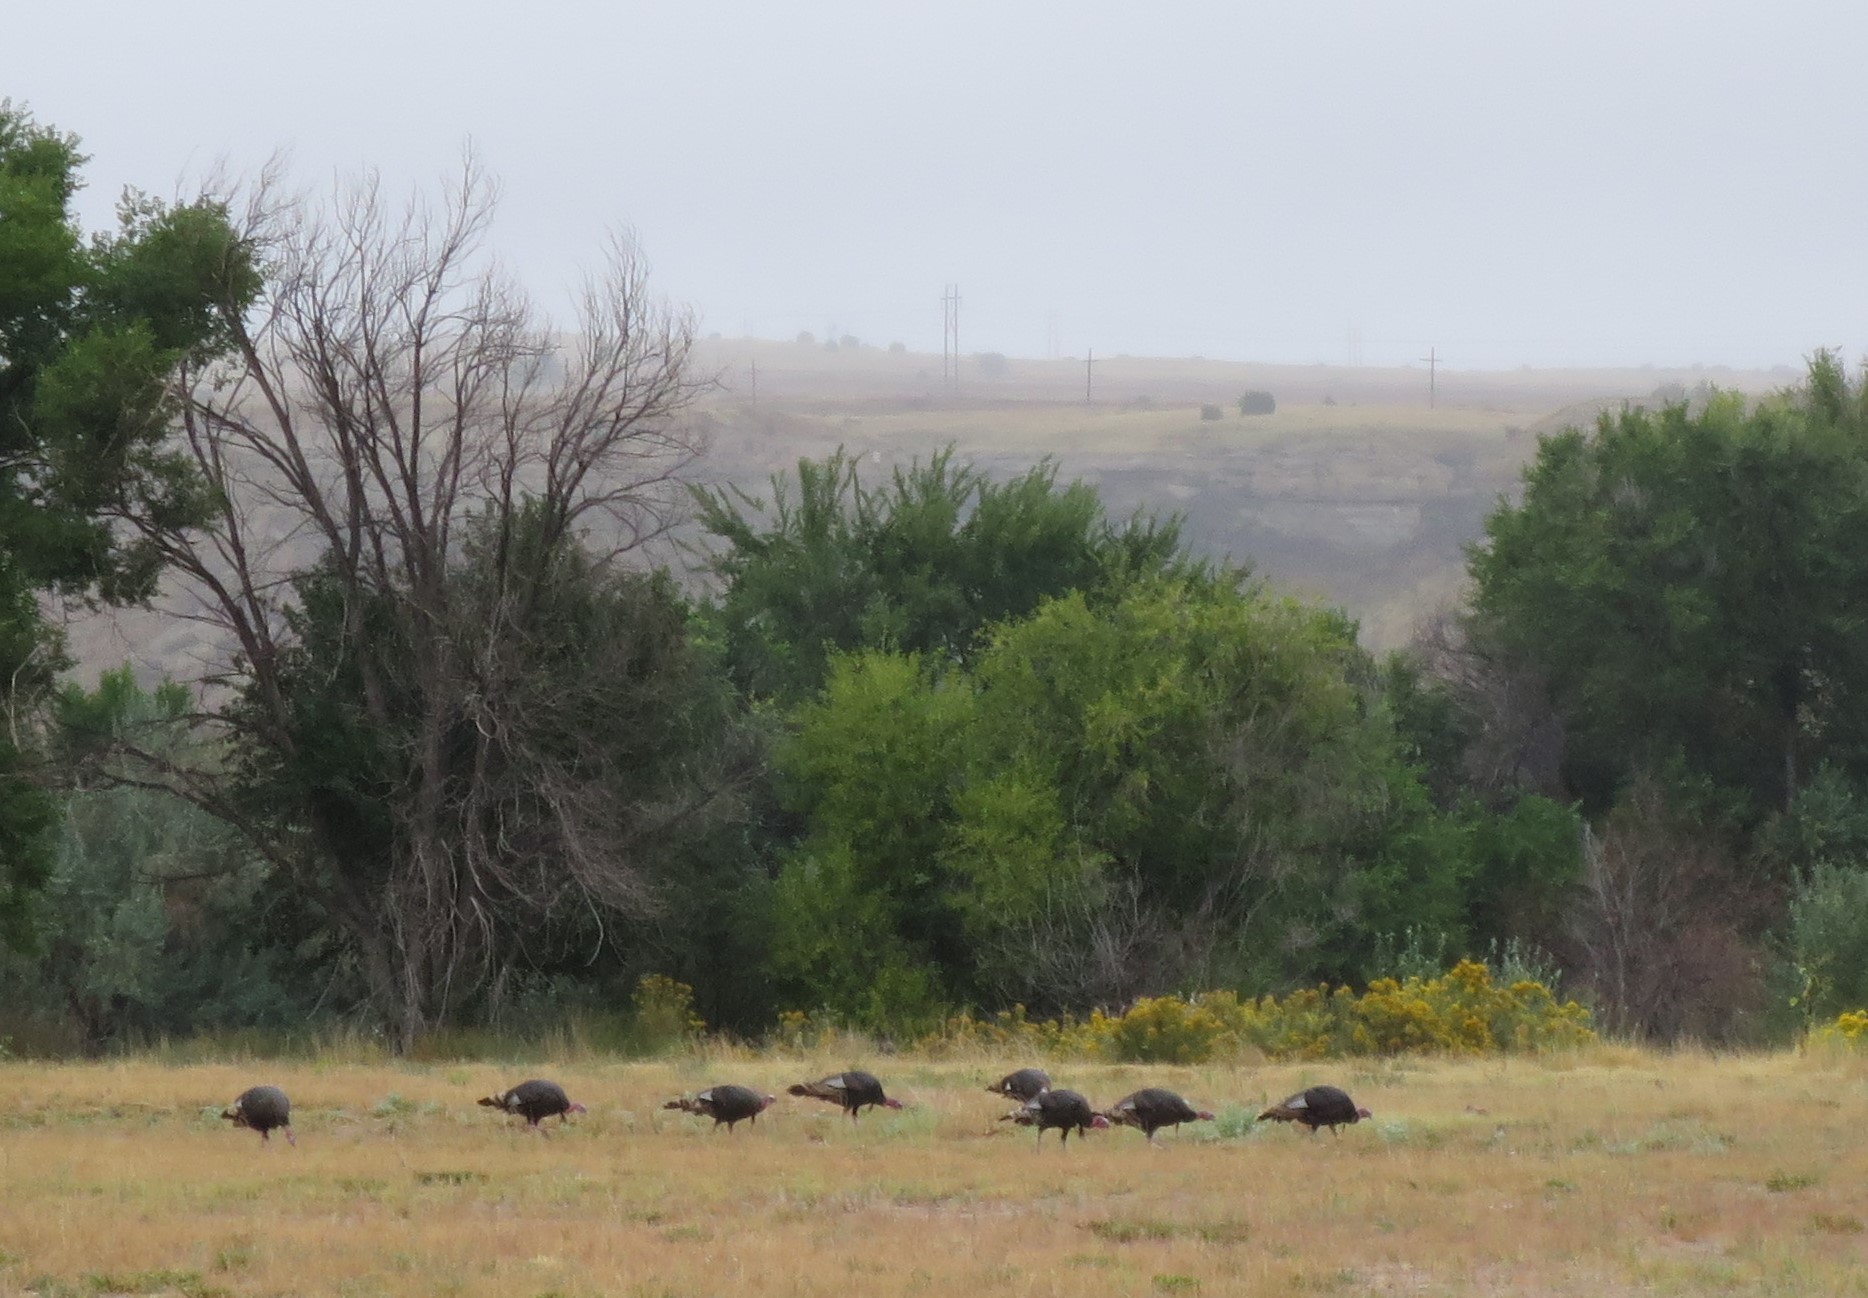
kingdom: Animalia
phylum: Chordata
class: Aves
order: Galliformes
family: Phasianidae
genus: Meleagris
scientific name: Meleagris gallopavo
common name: Wild turkey
